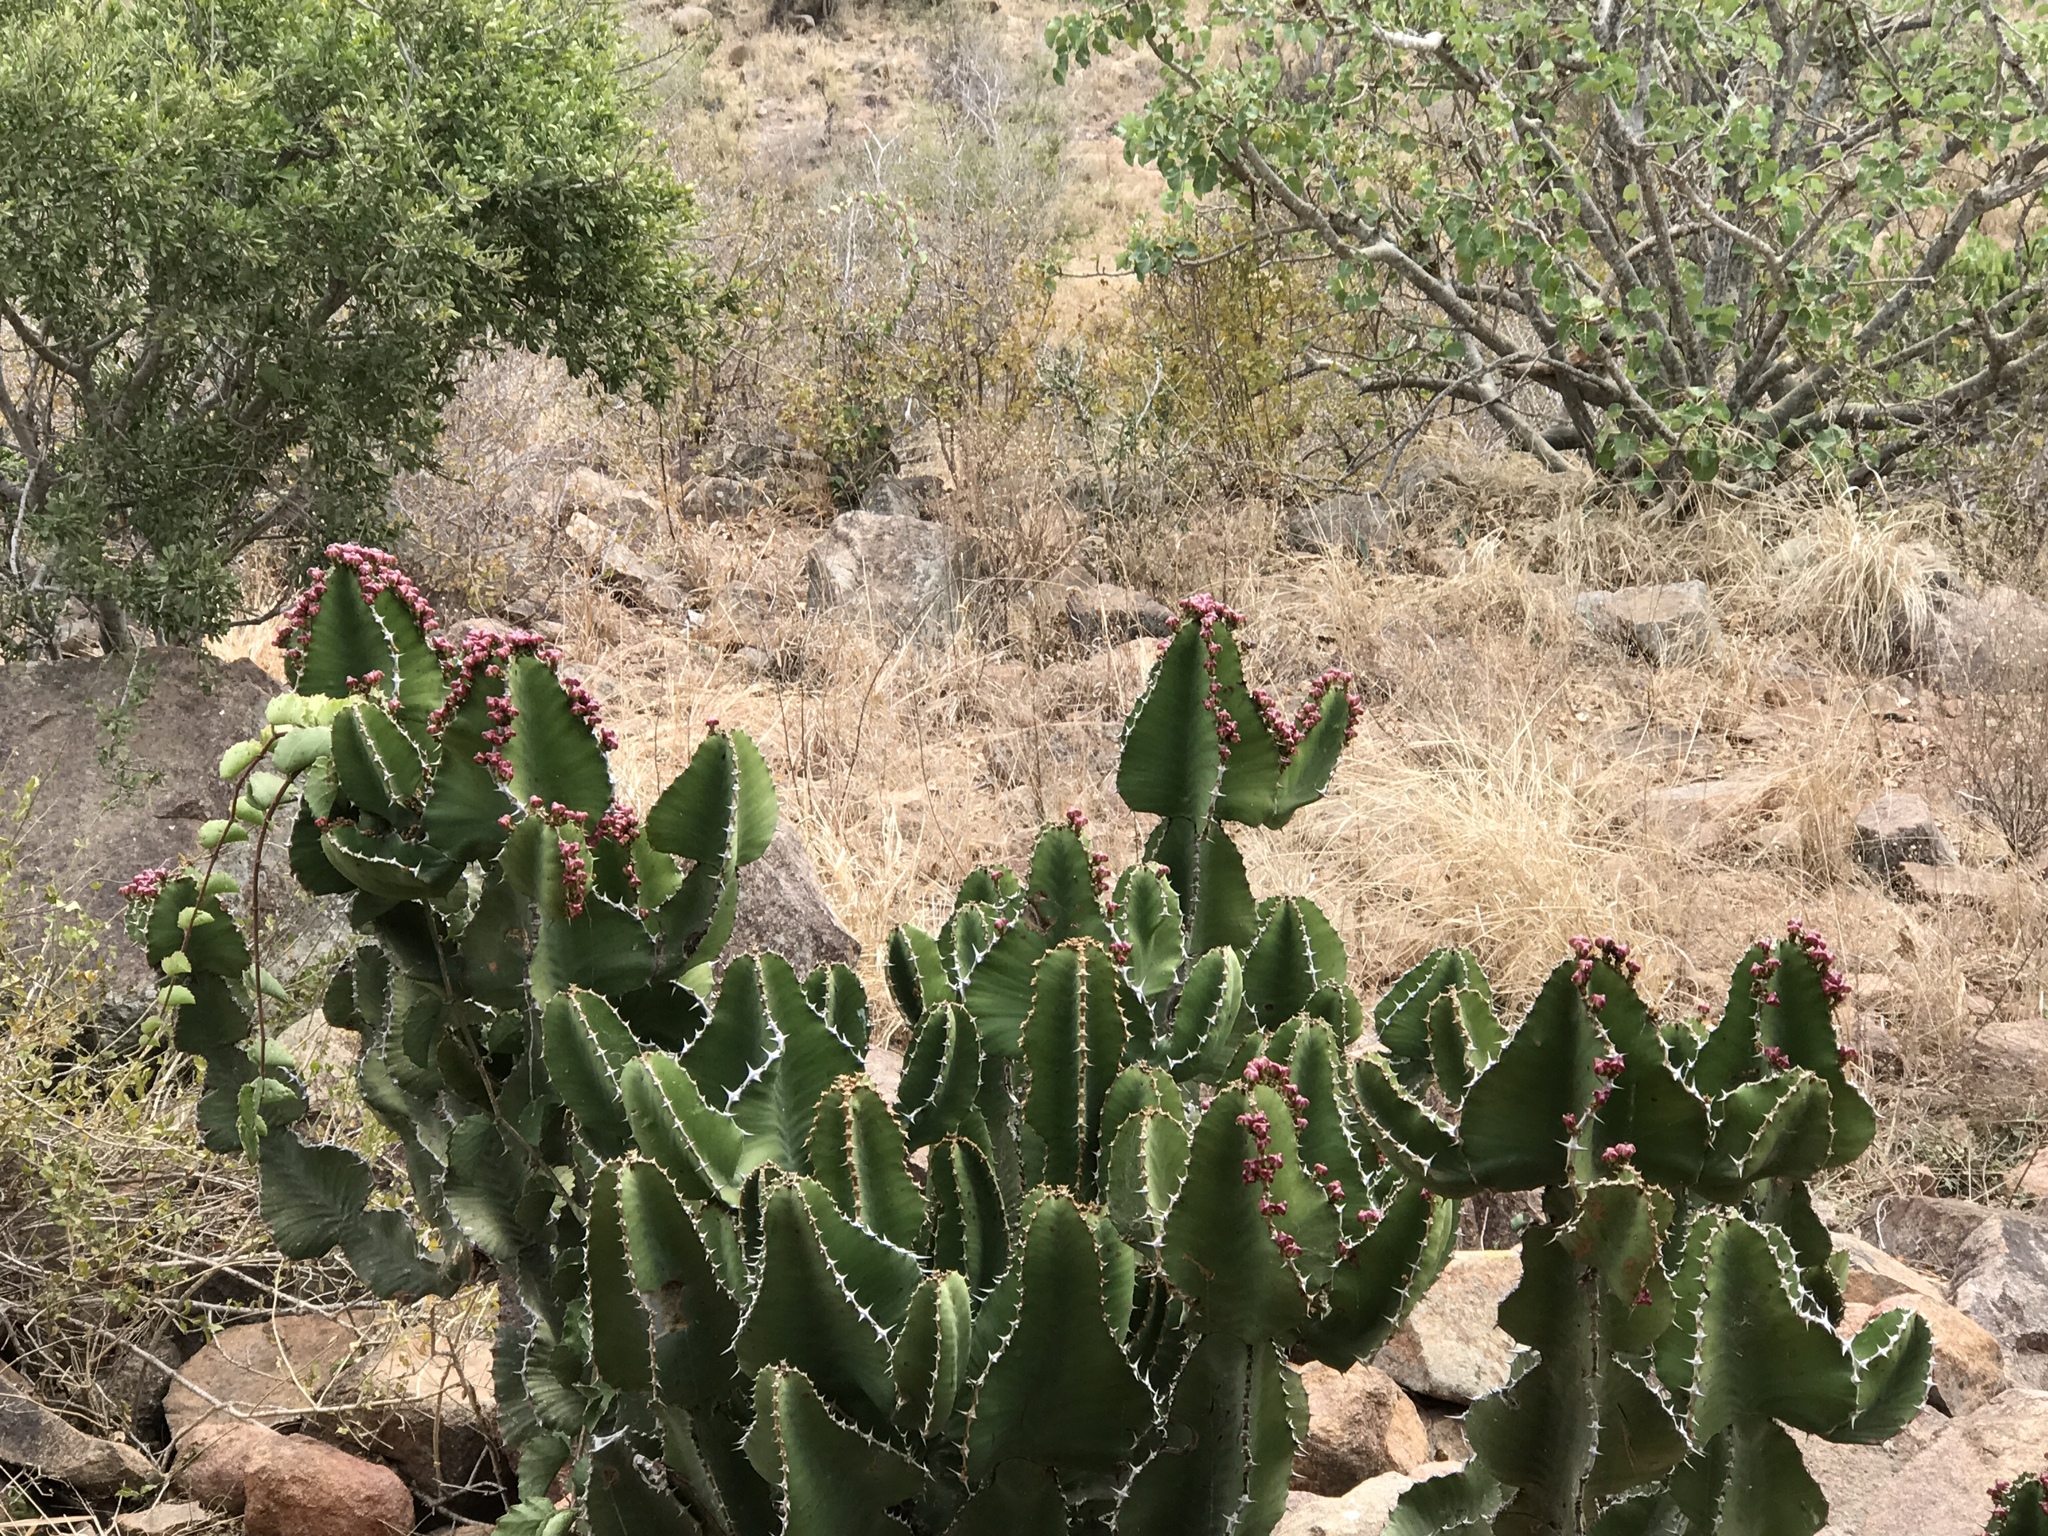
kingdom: Plantae
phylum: Tracheophyta
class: Magnoliopsida
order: Malpighiales
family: Euphorbiaceae
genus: Euphorbia
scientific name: Euphorbia cooperi
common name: Candelabra tree
